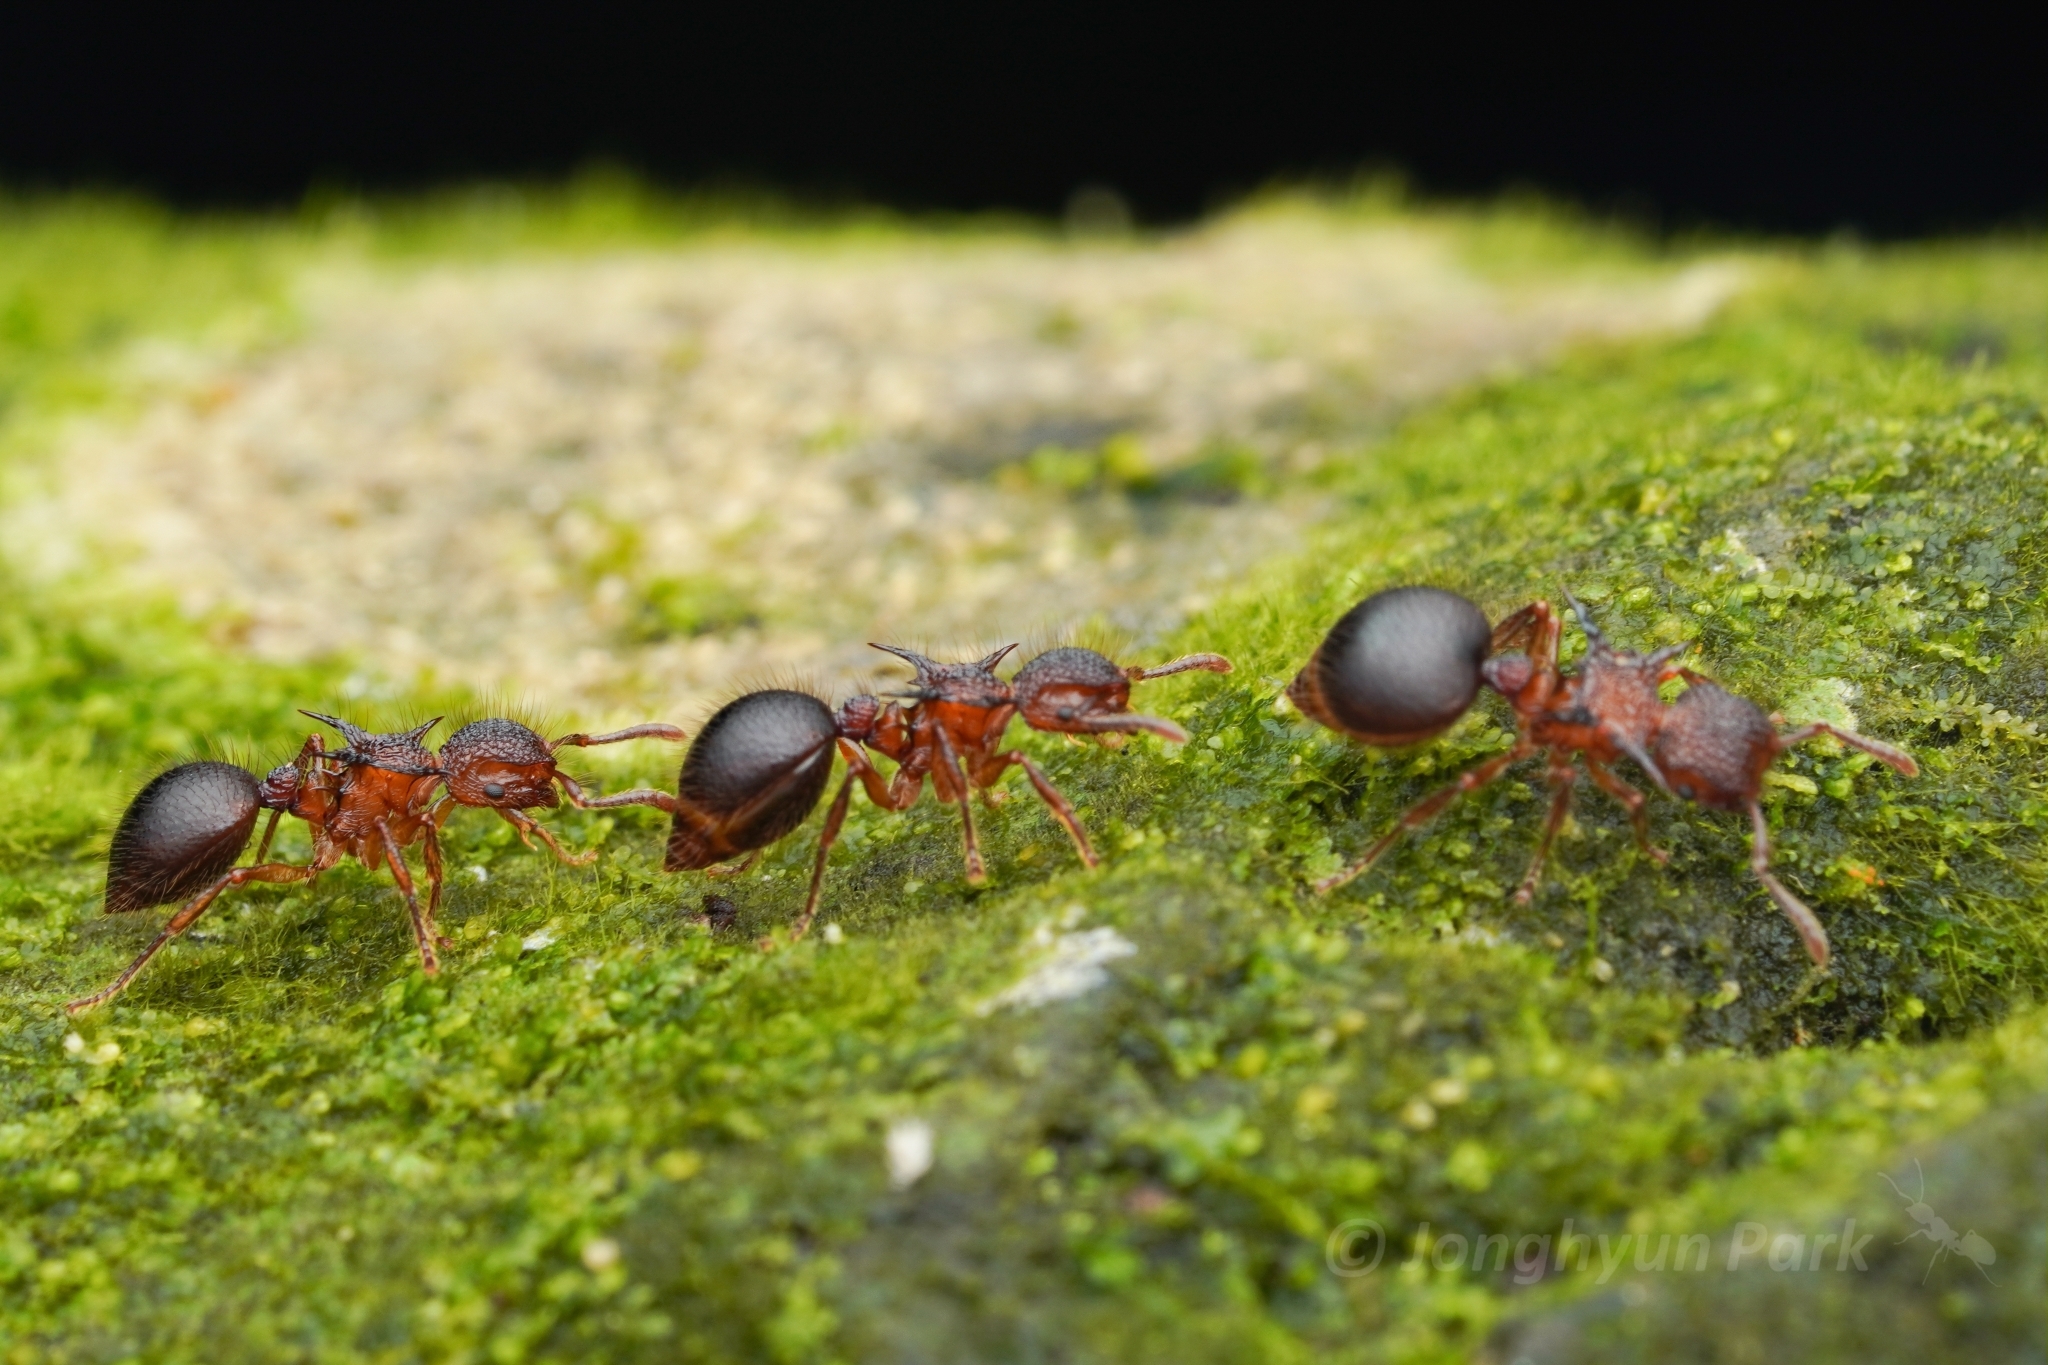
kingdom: Animalia
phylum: Arthropoda
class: Insecta
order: Hymenoptera
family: Formicidae
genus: Meranoplus
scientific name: Meranoplus mucronatus
